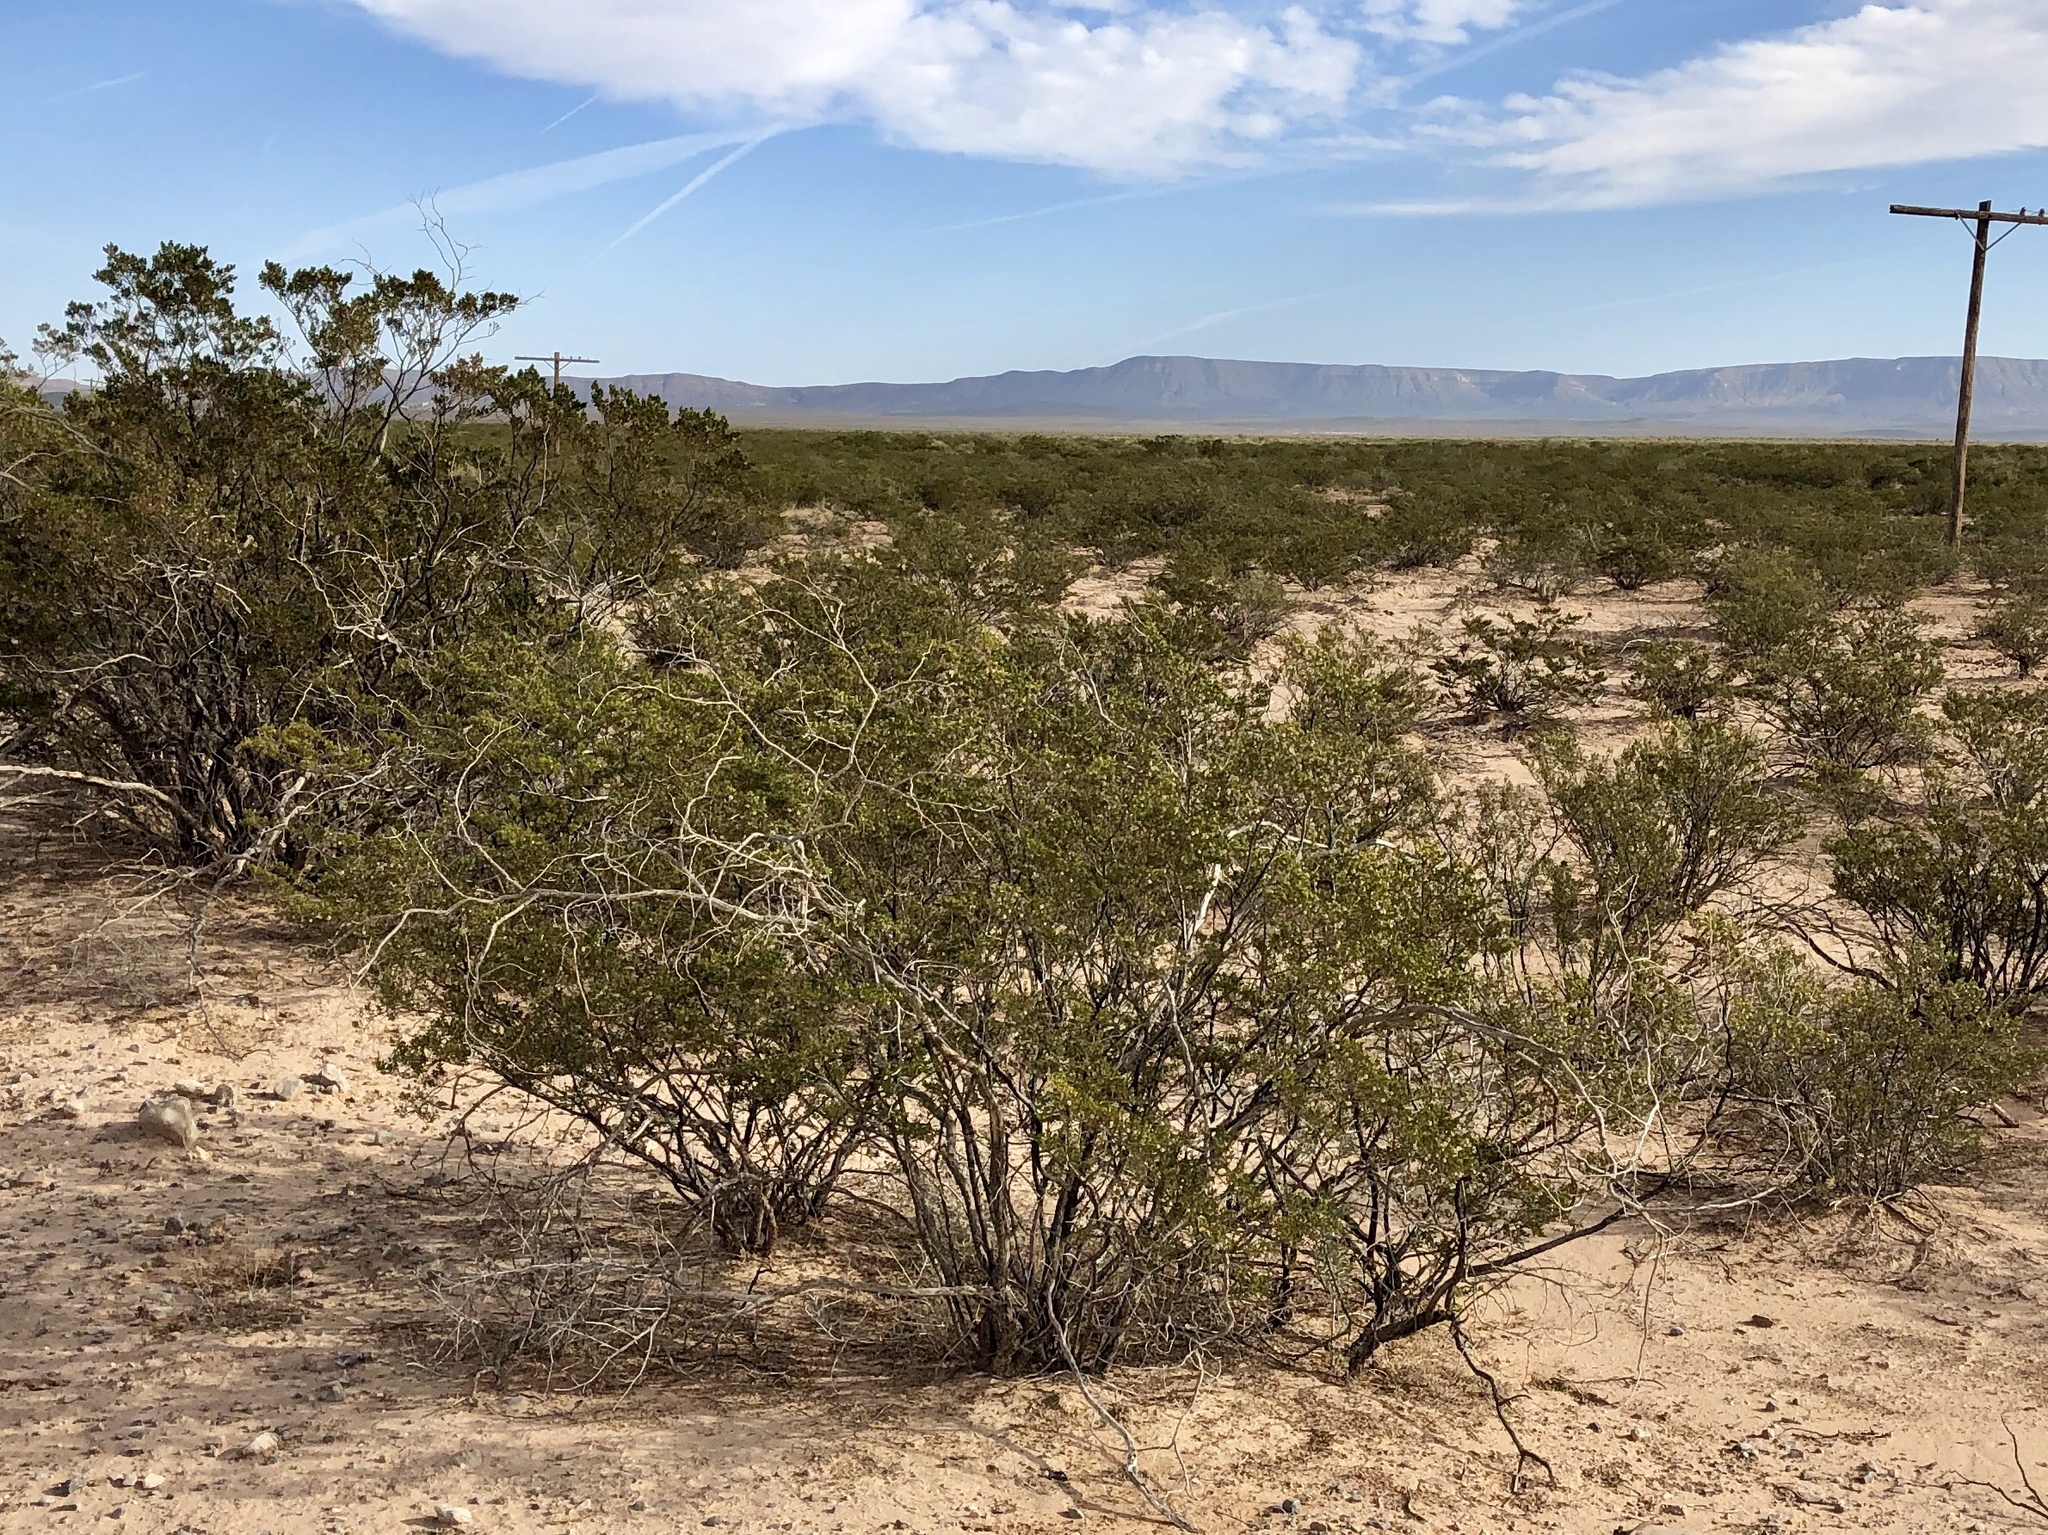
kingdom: Plantae
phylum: Tracheophyta
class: Magnoliopsida
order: Zygophyllales
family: Zygophyllaceae
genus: Larrea
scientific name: Larrea tridentata
